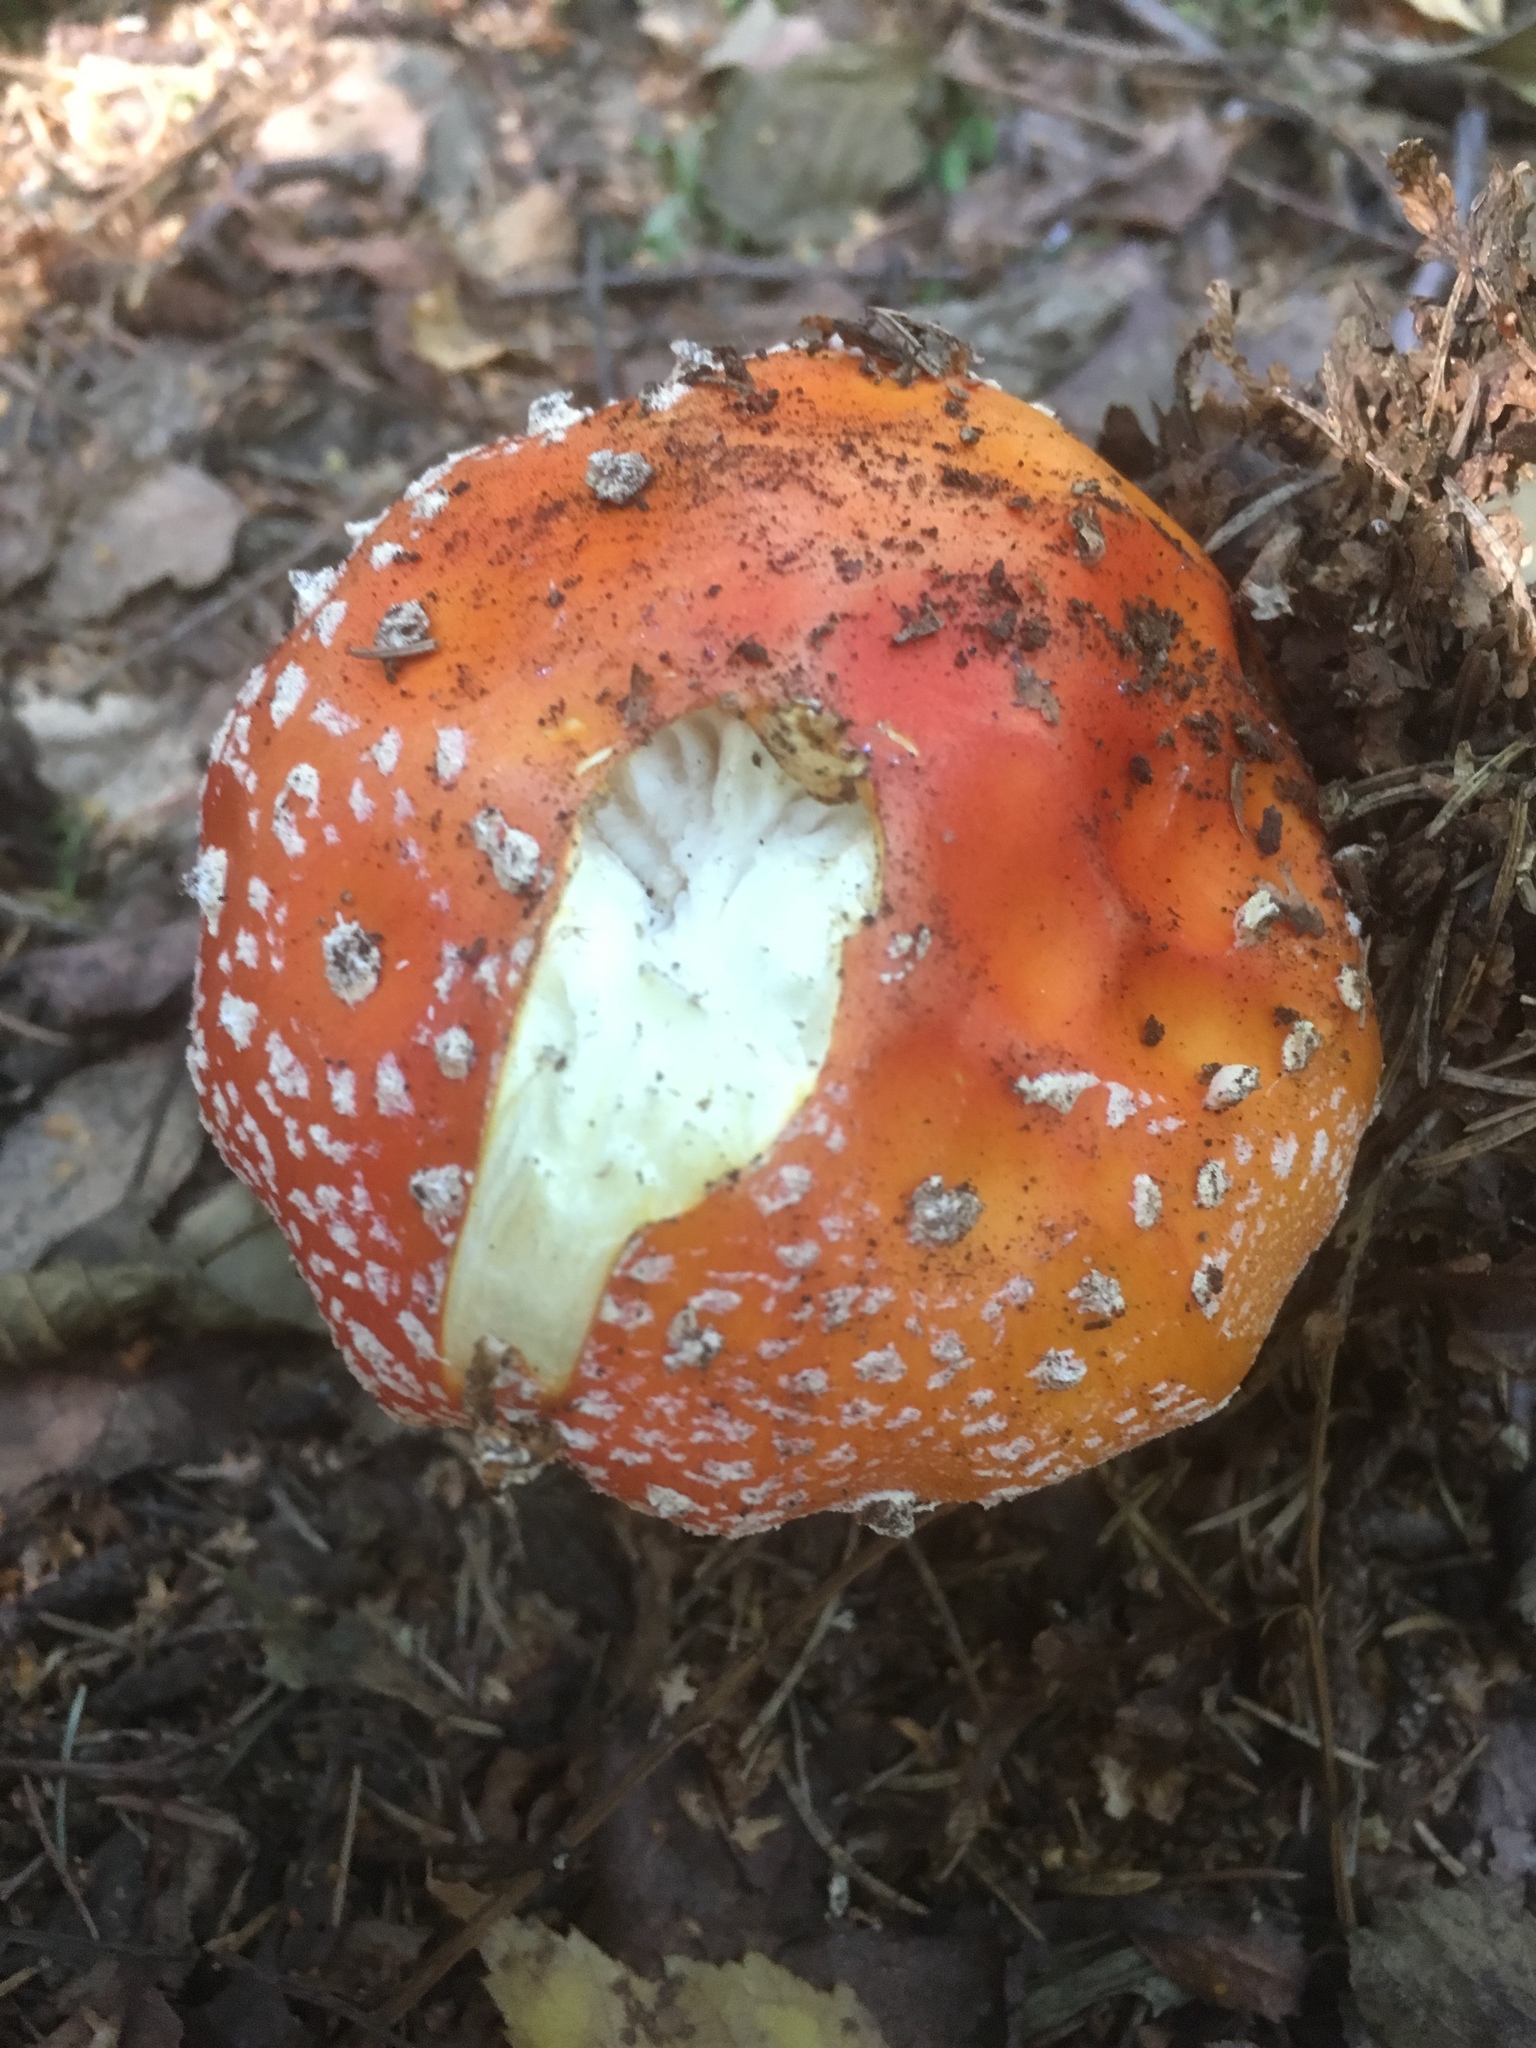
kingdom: Fungi
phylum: Basidiomycota
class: Agaricomycetes
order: Agaricales
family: Amanitaceae
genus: Amanita
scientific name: Amanita muscaria
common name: Fly agaric
